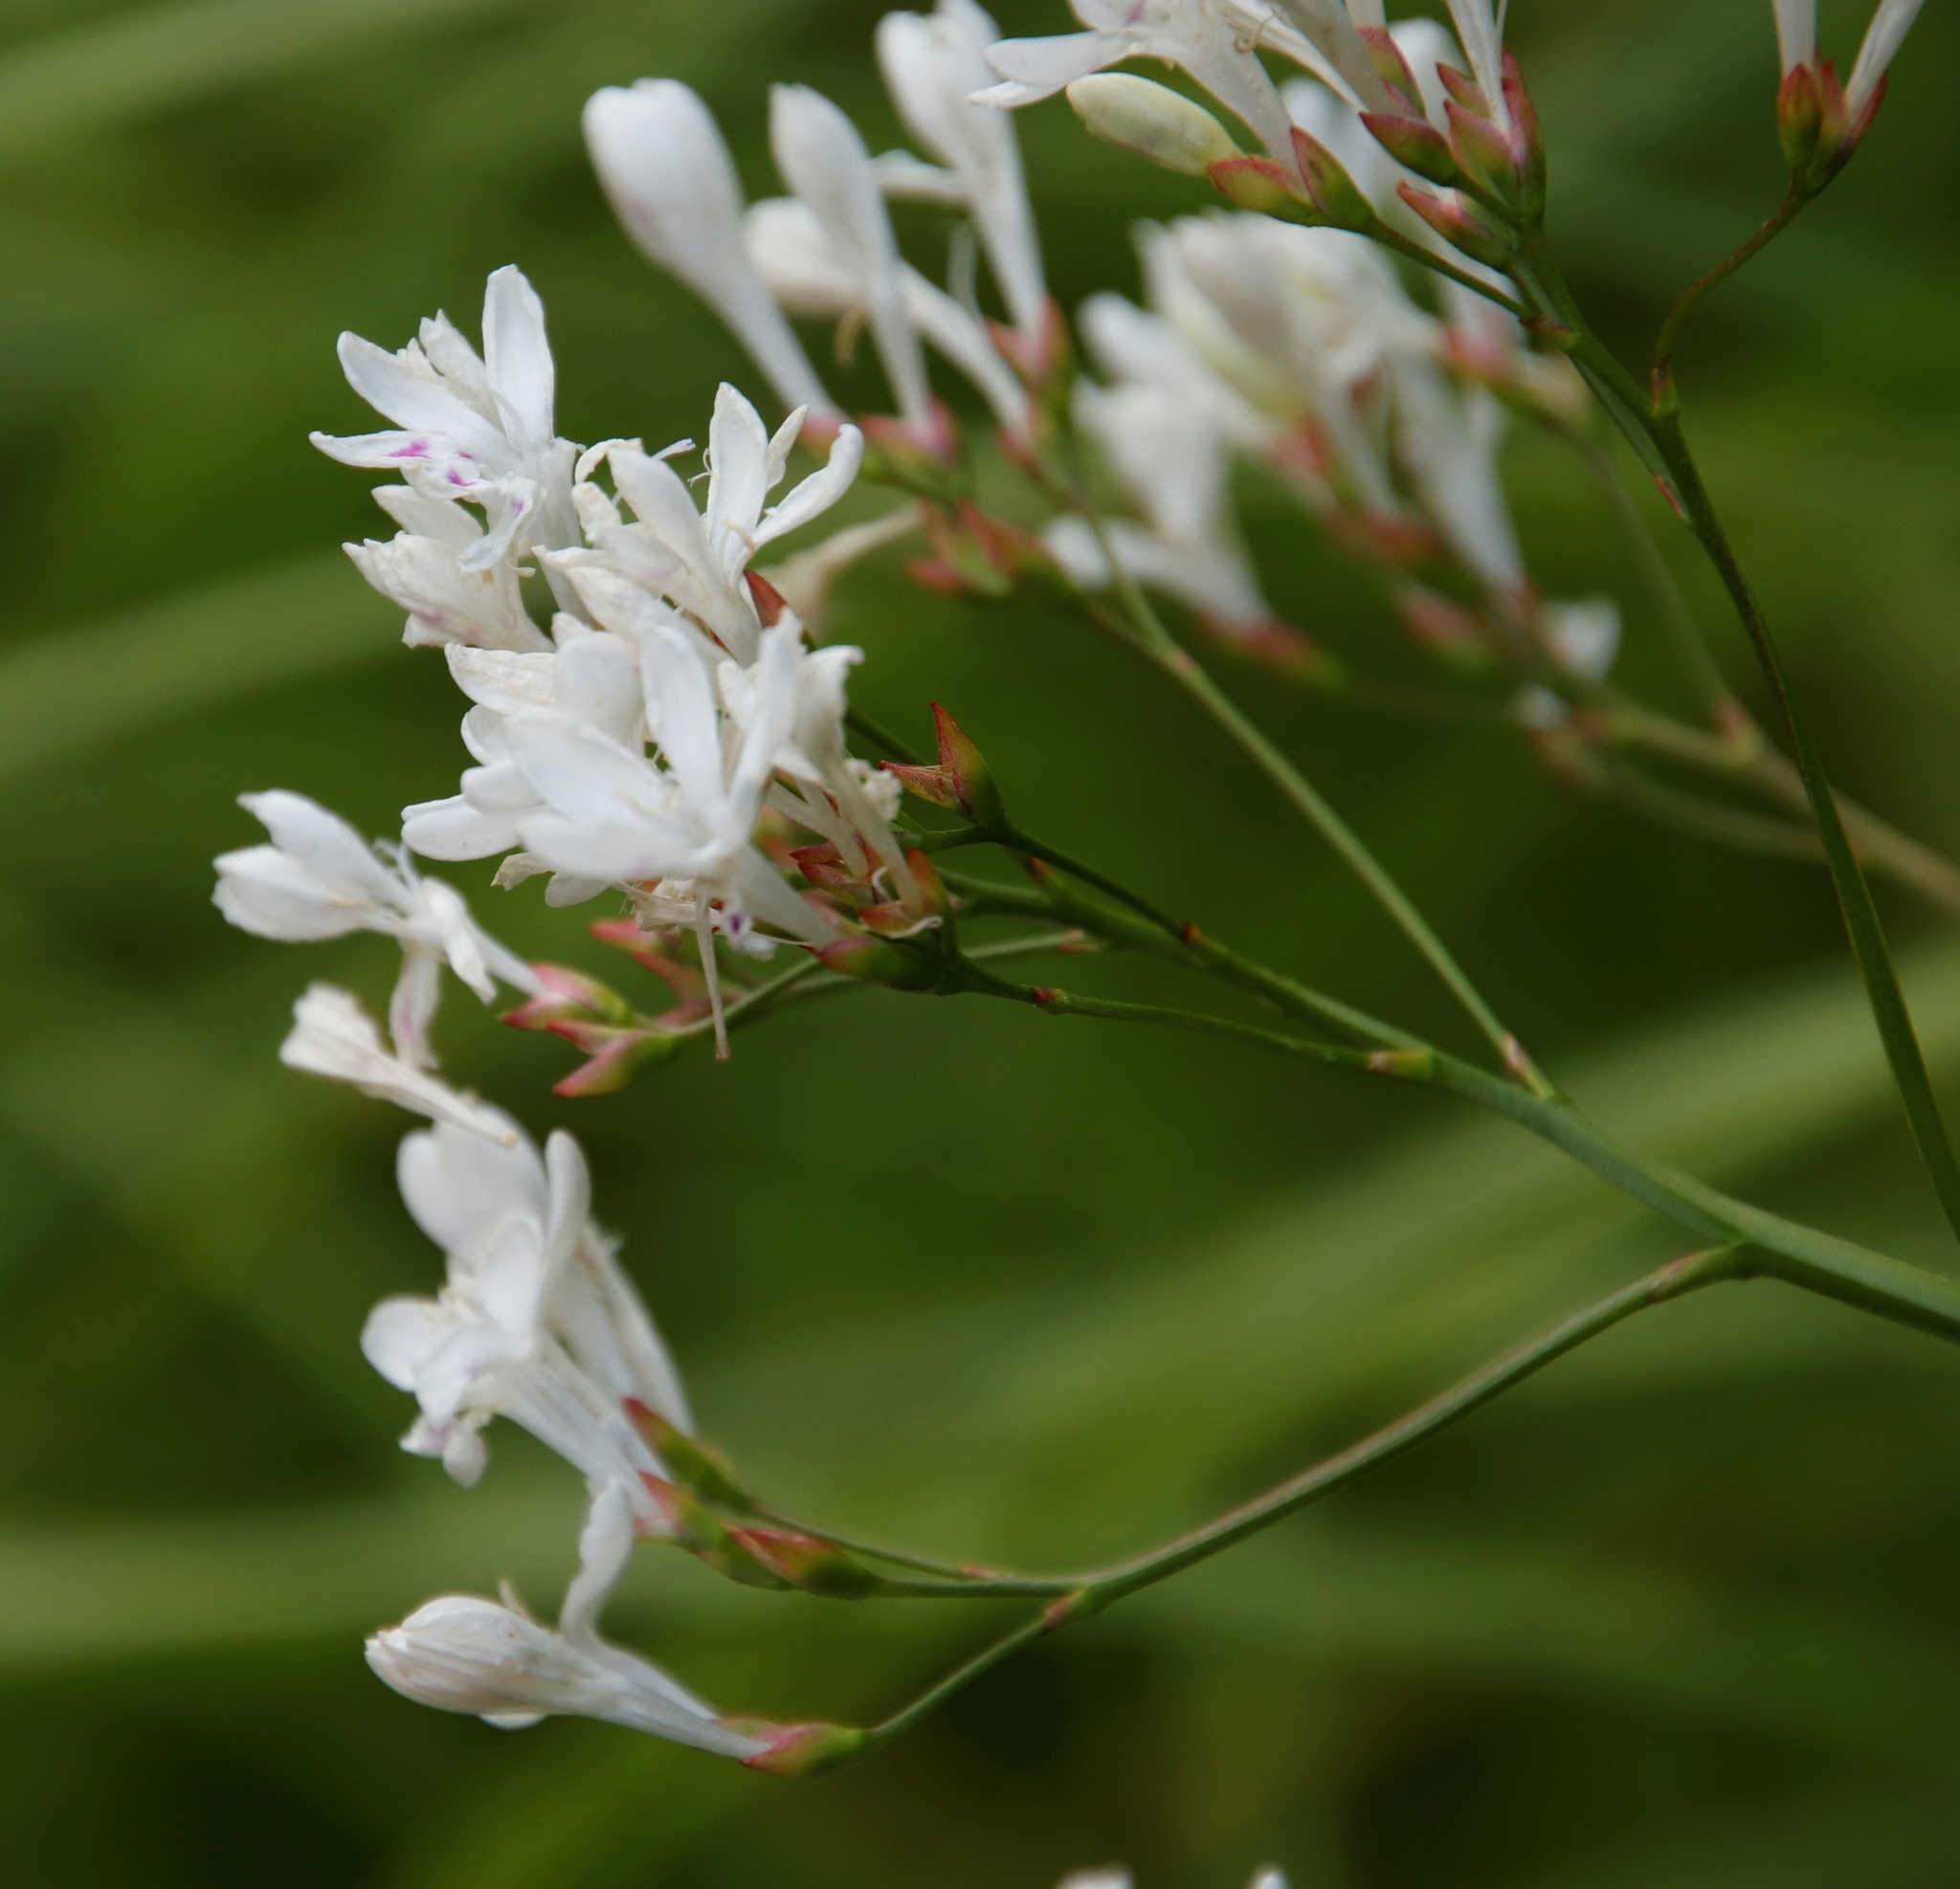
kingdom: Plantae
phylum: Tracheophyta
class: Liliopsida
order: Asparagales
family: Iridaceae
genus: Schizorhiza
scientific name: Schizorhiza neglecta
